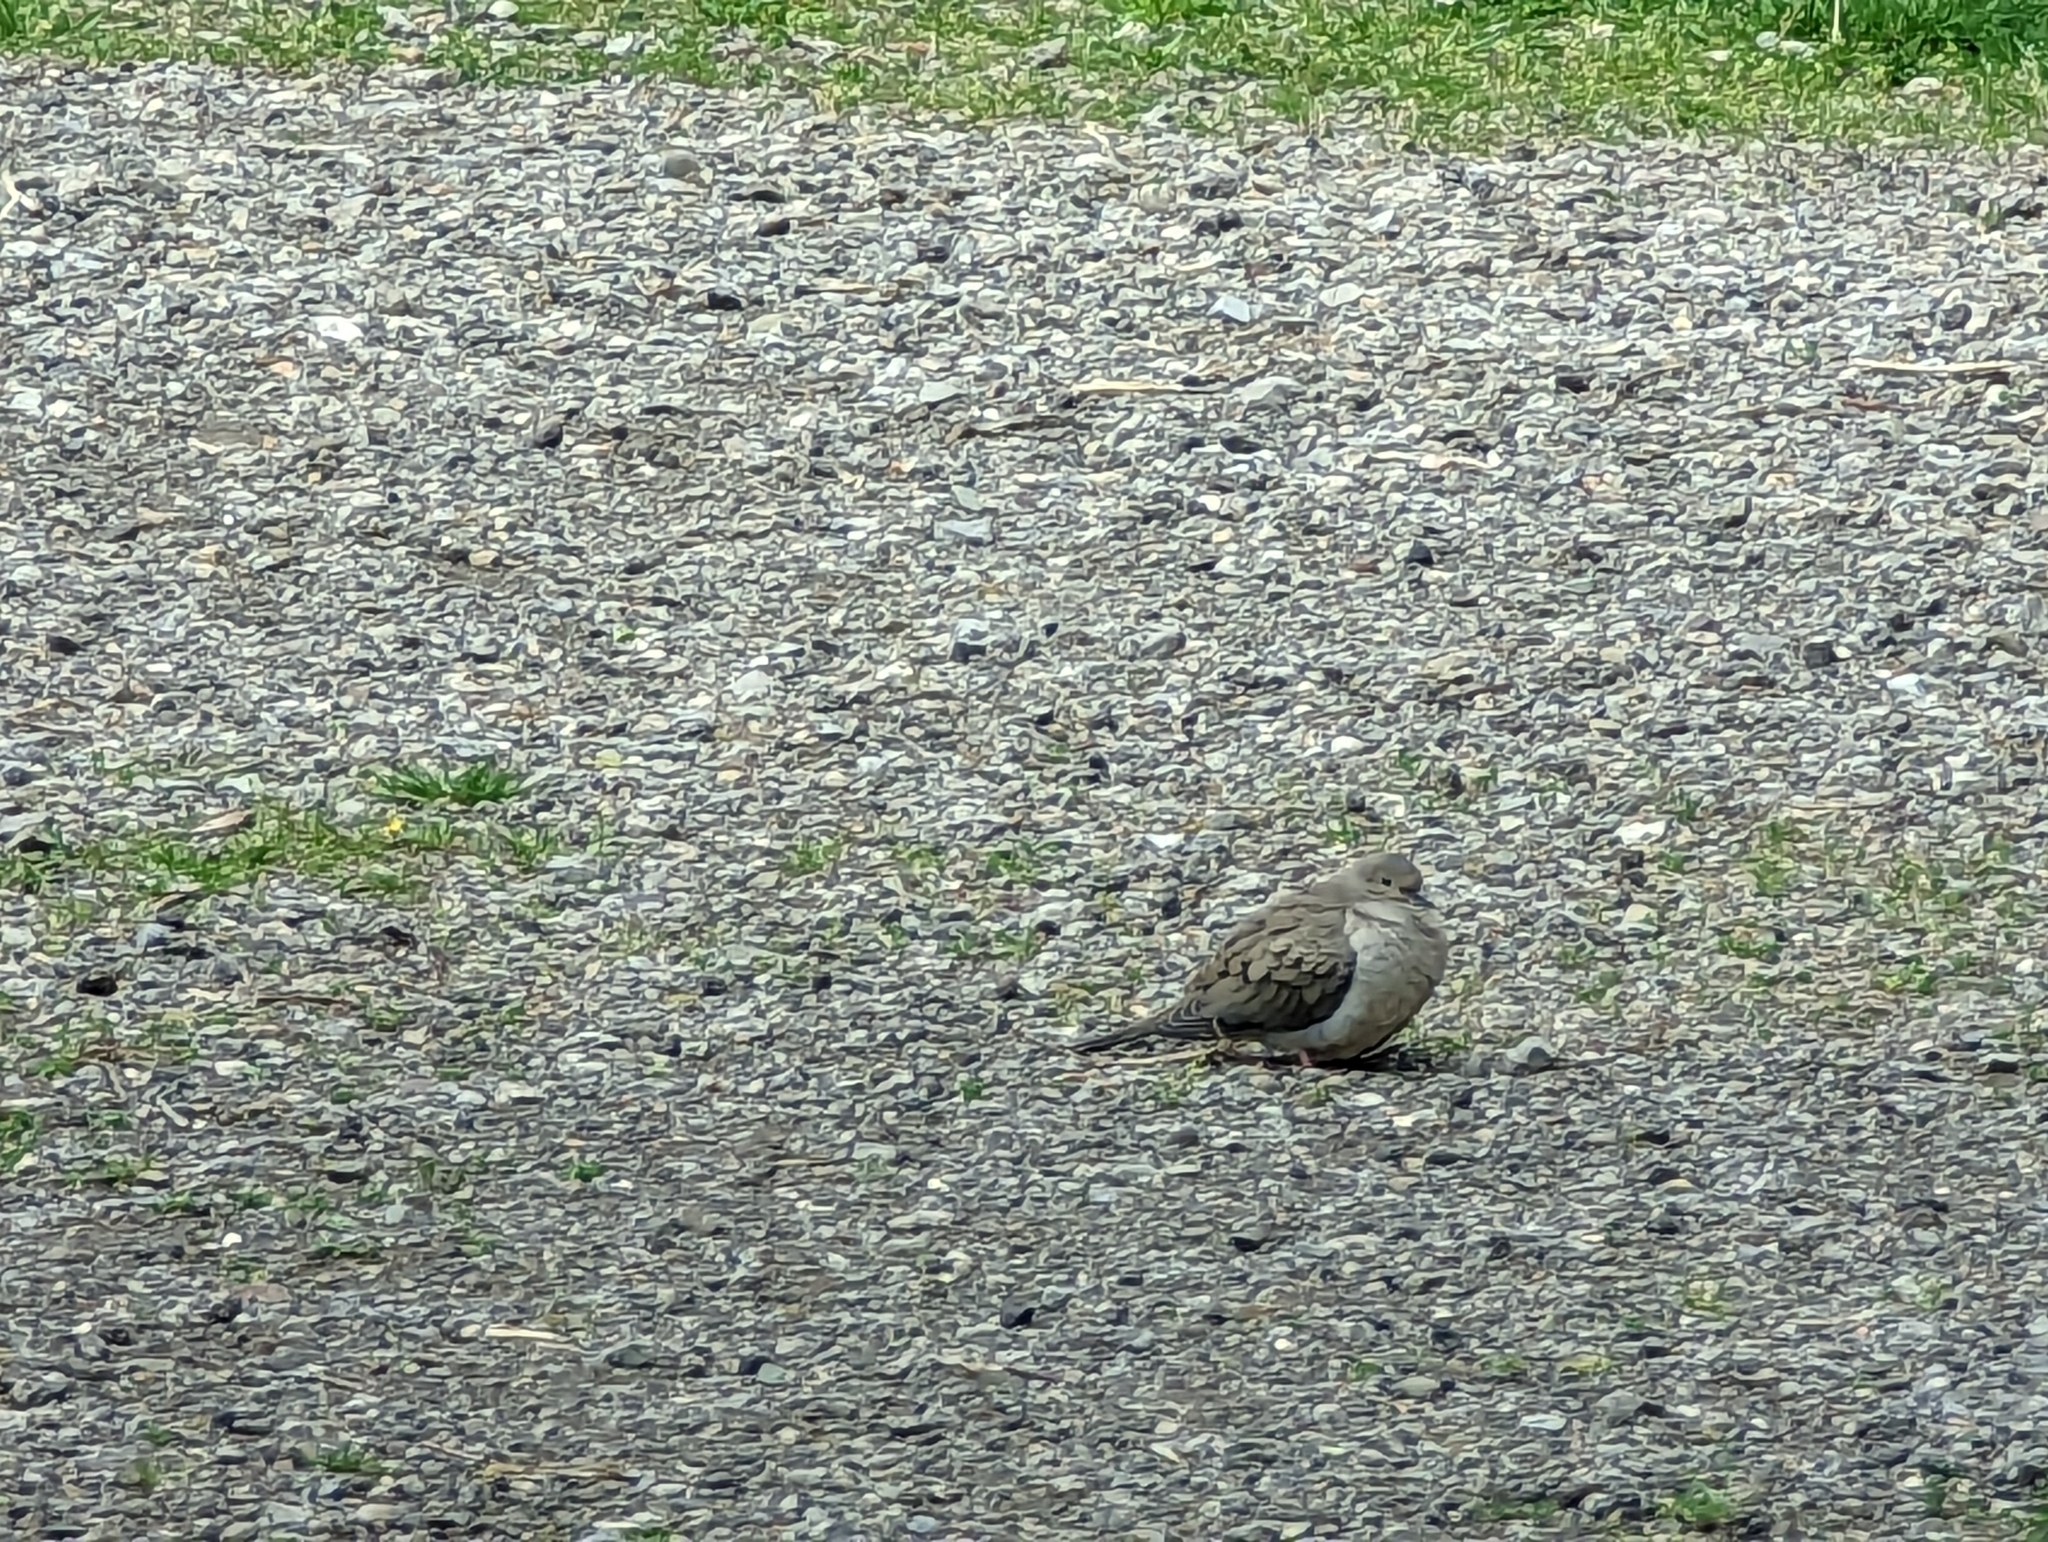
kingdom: Animalia
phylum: Chordata
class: Aves
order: Columbiformes
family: Columbidae
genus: Zenaida
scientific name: Zenaida macroura
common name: Mourning dove
